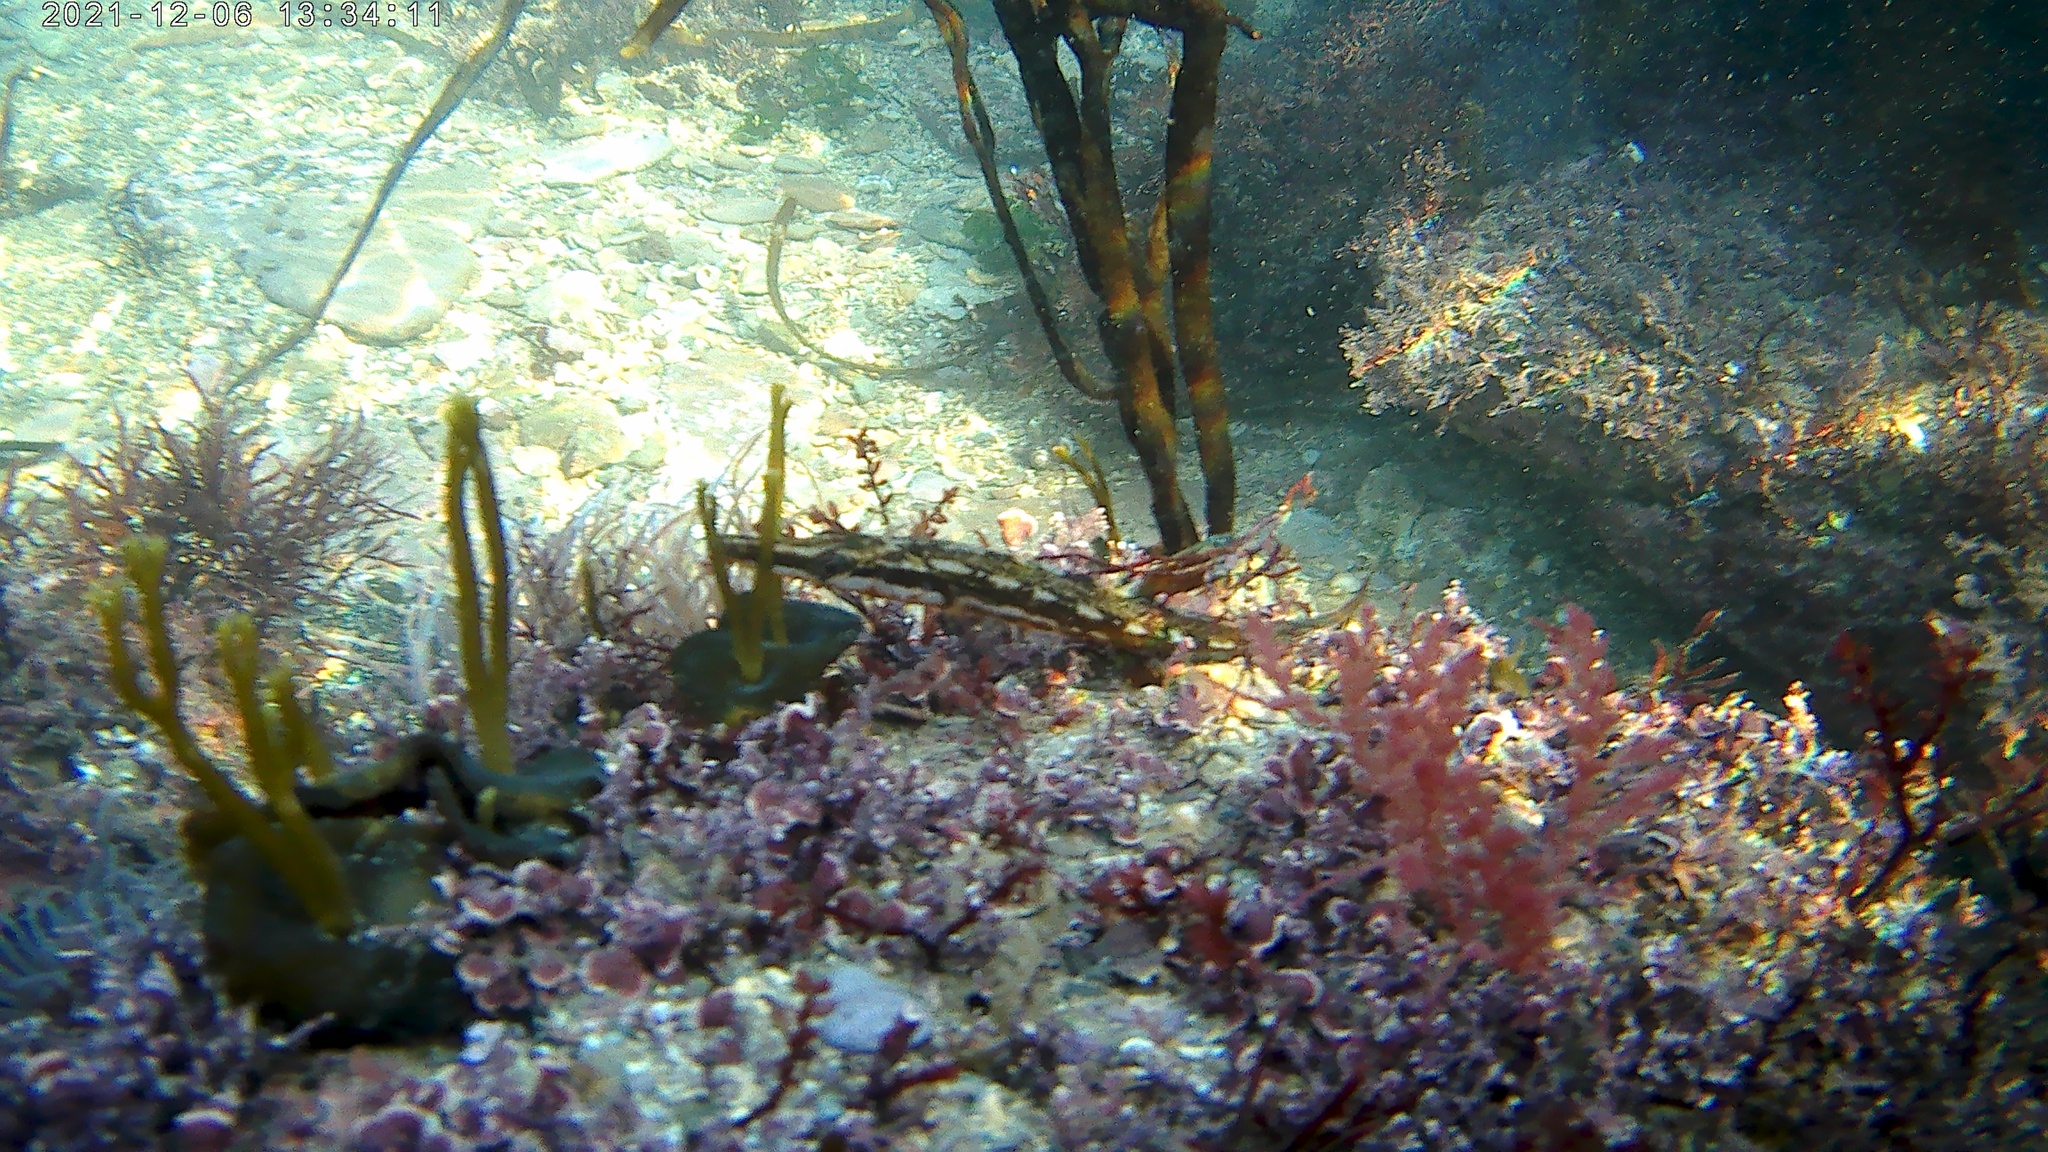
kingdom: Animalia
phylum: Chordata
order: Gasterosteiformes
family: Gasterosteidae
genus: Spinachia
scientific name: Spinachia spinachia
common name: Fifteen-spined stickleback
